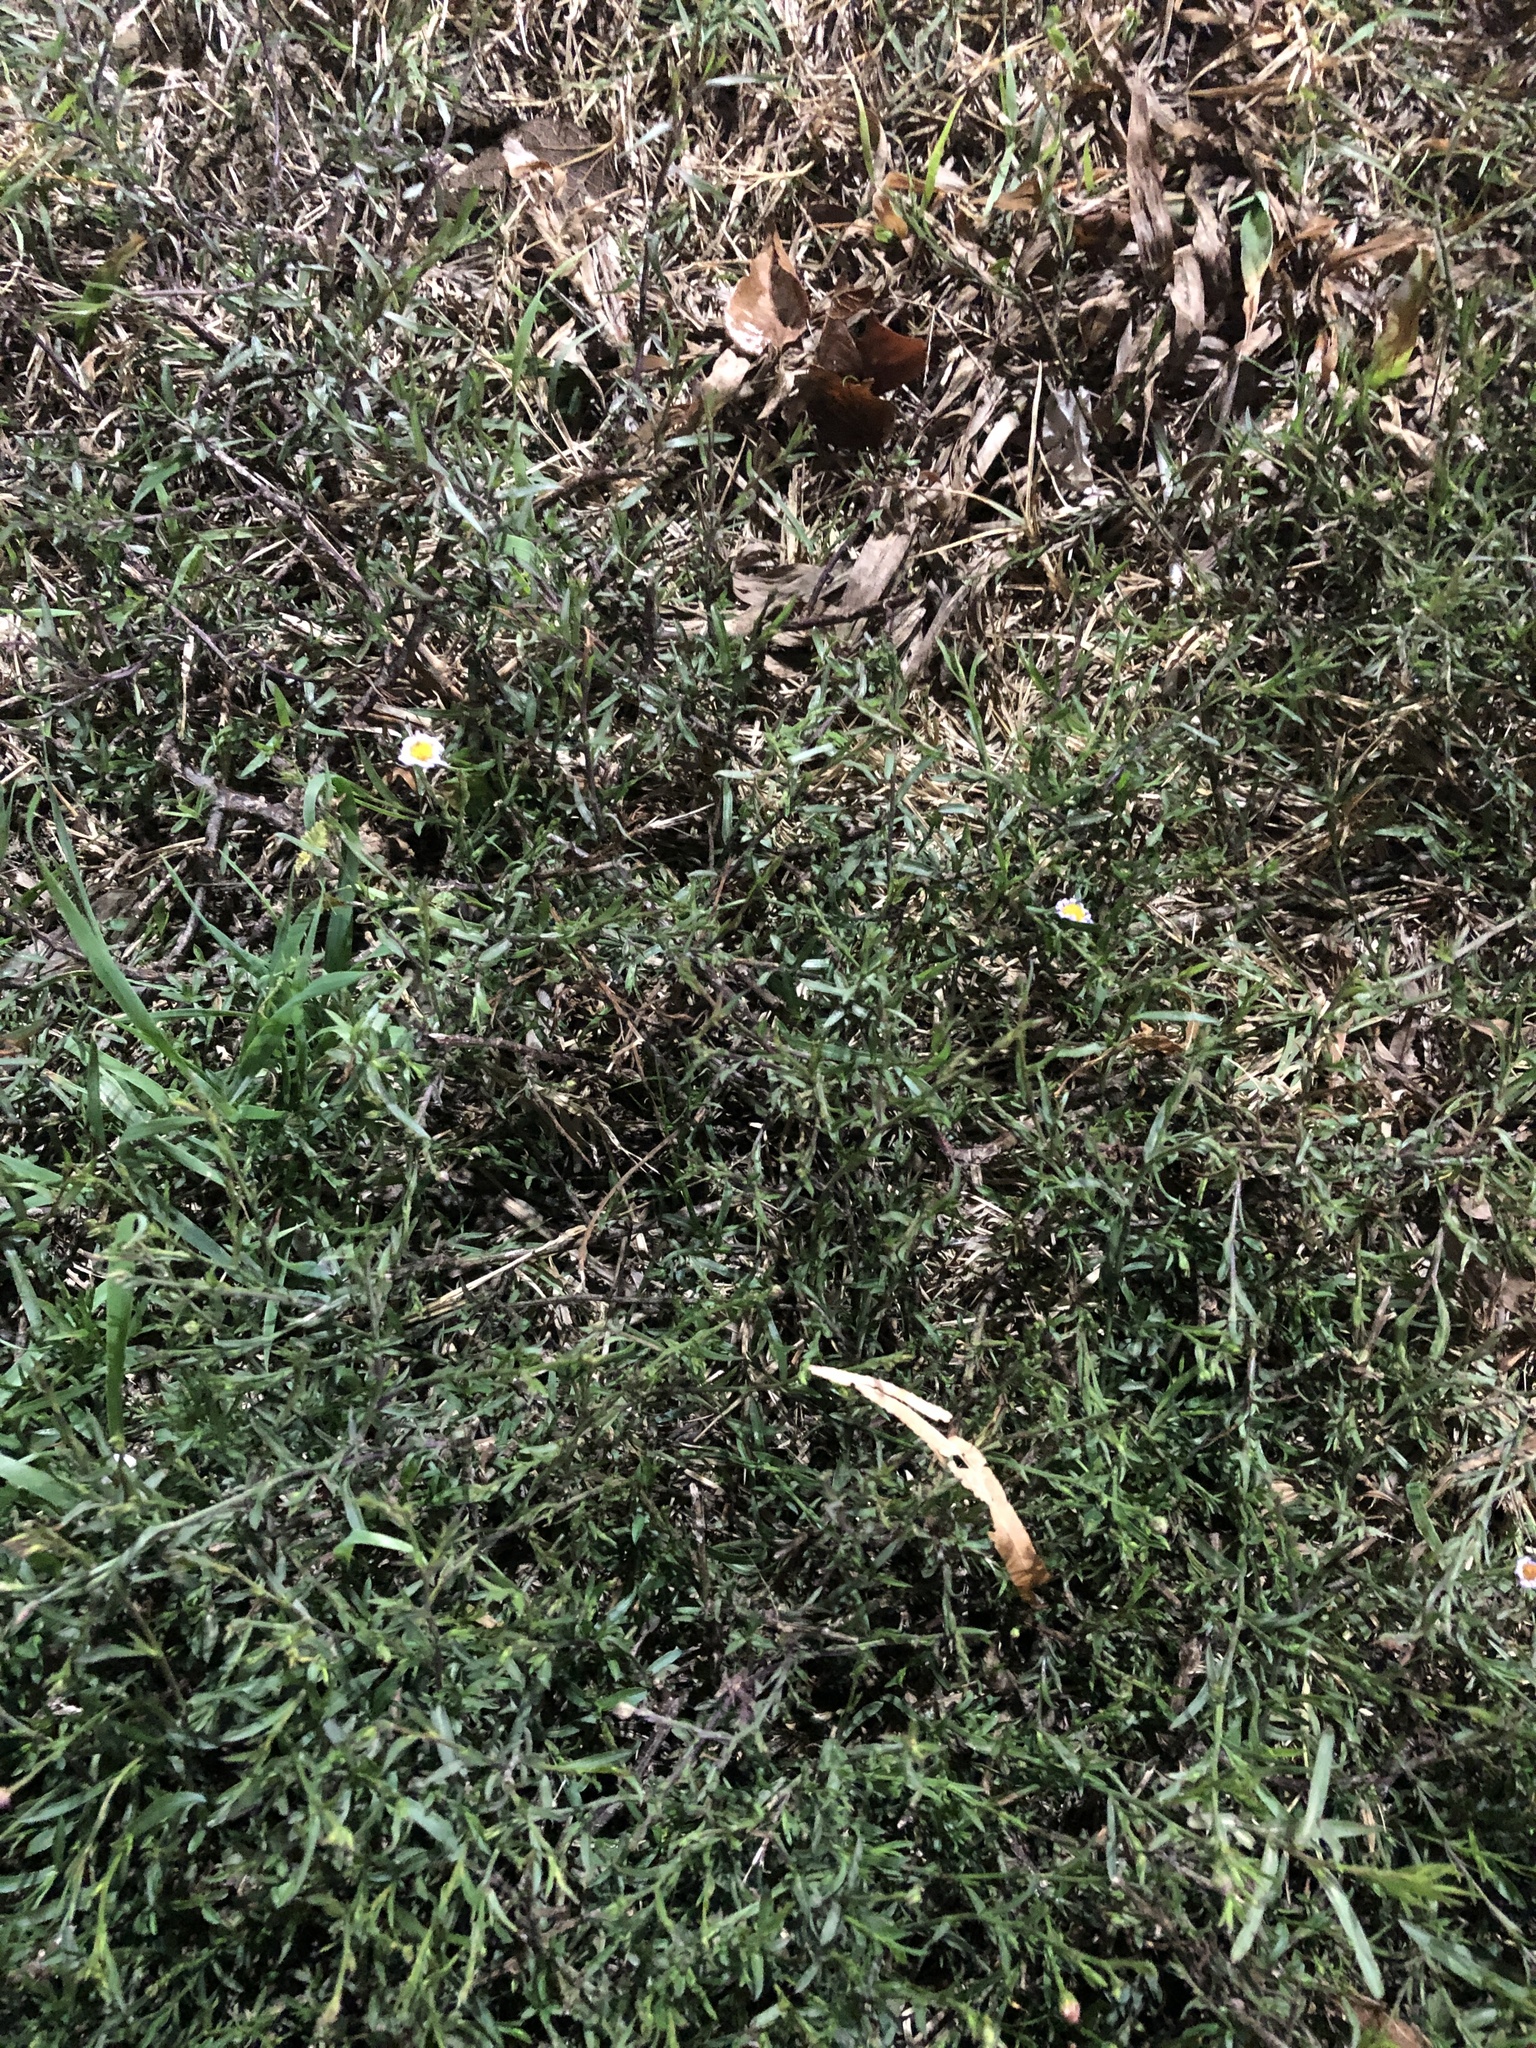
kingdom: Plantae
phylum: Tracheophyta
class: Magnoliopsida
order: Asterales
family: Asteraceae
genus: Symphyotrichum
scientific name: Symphyotrichum divaricatum
